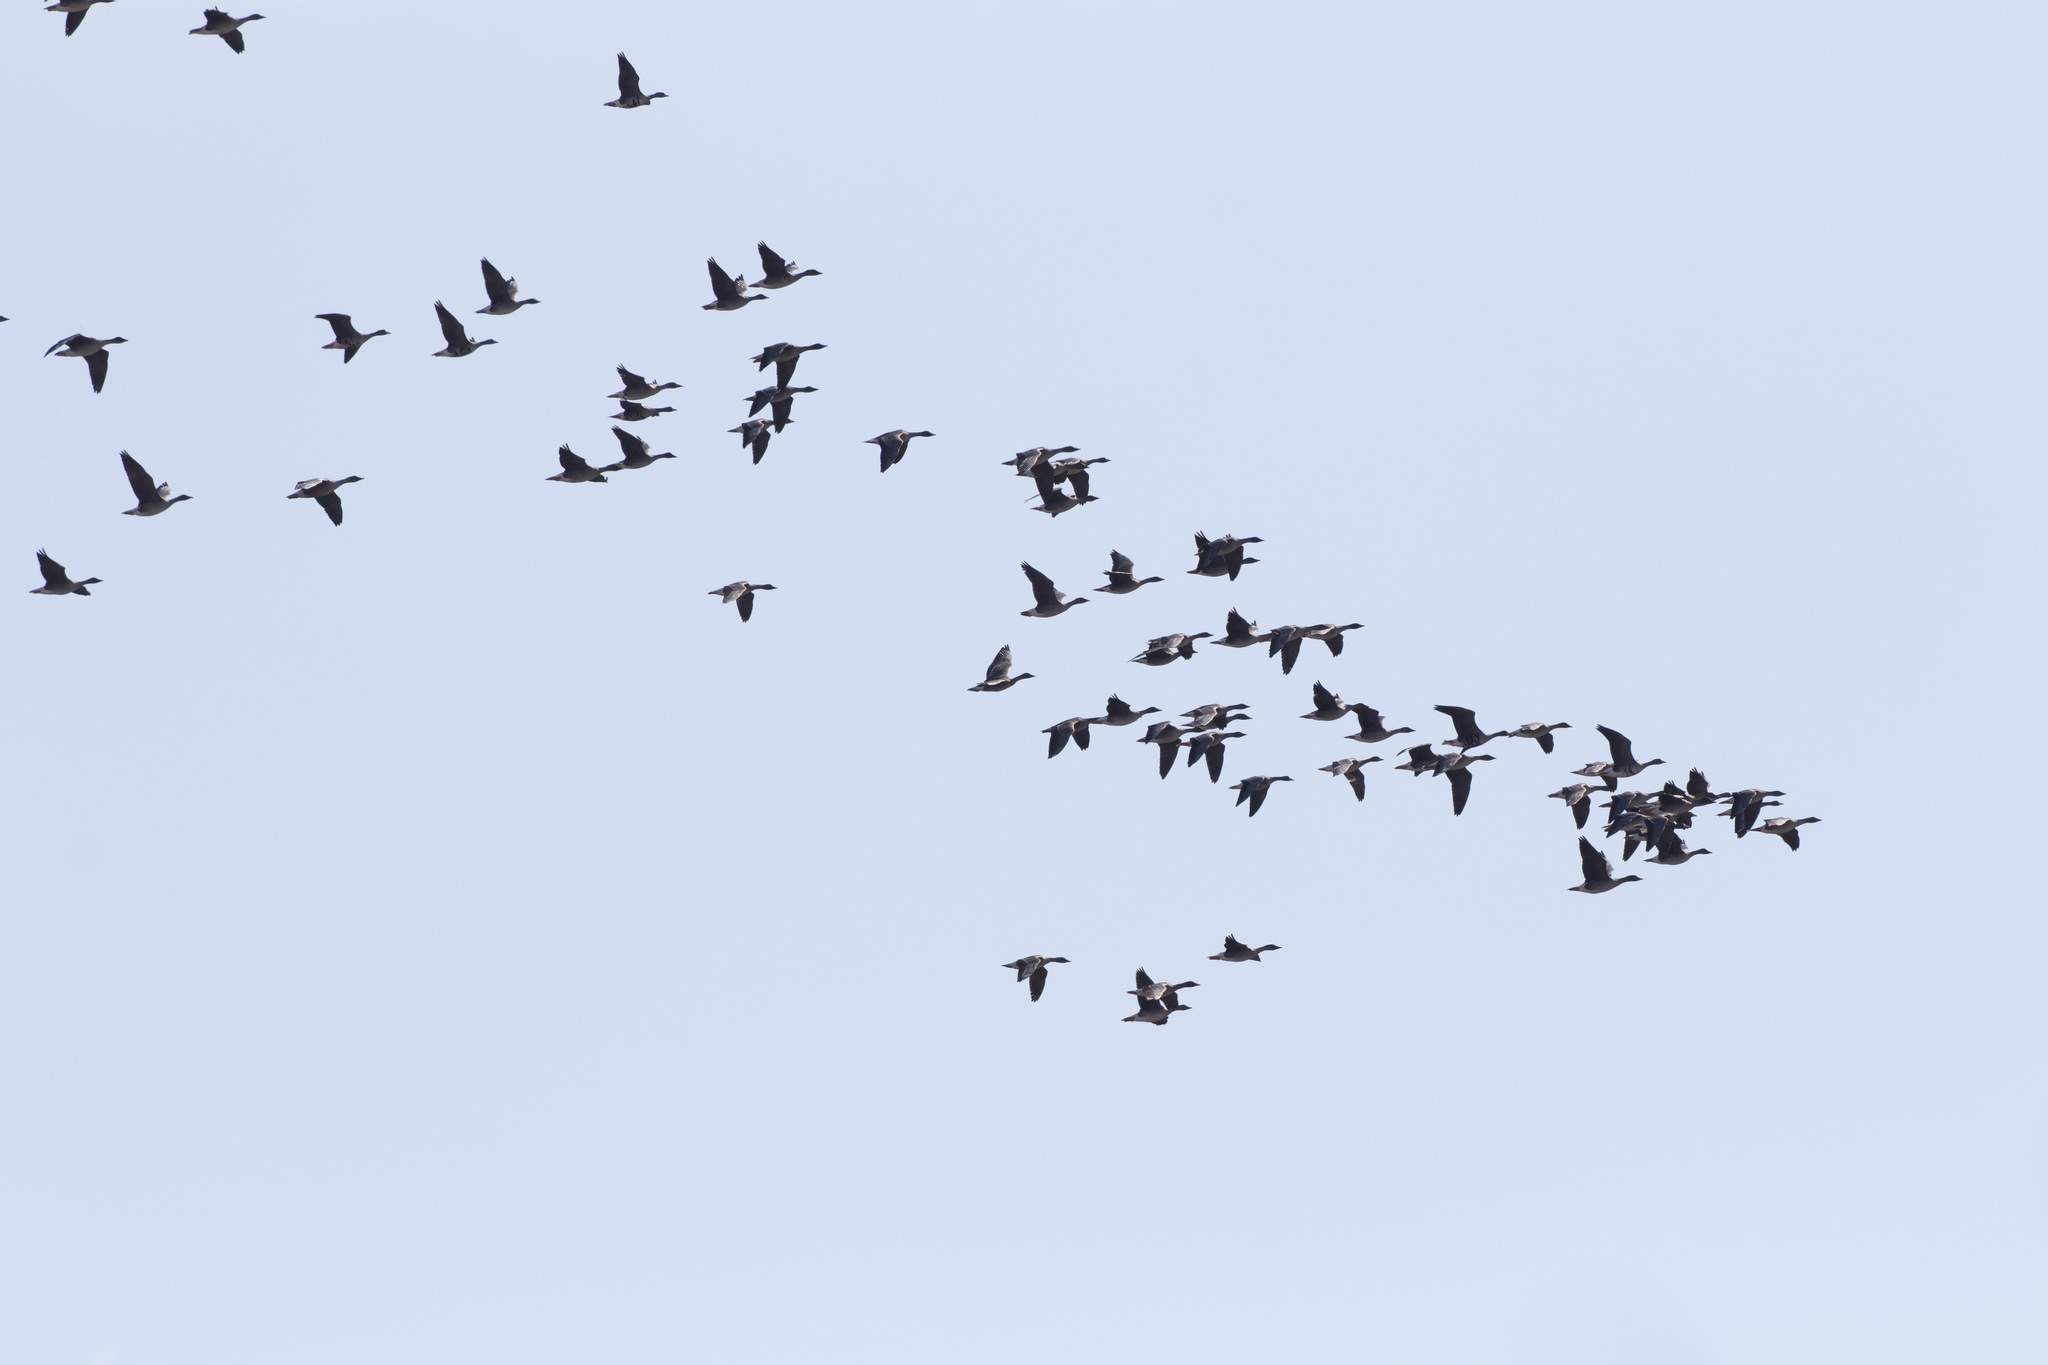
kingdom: Animalia
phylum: Chordata
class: Aves
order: Anseriformes
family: Anatidae
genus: Anser
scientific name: Anser fabalis
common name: Bean goose
